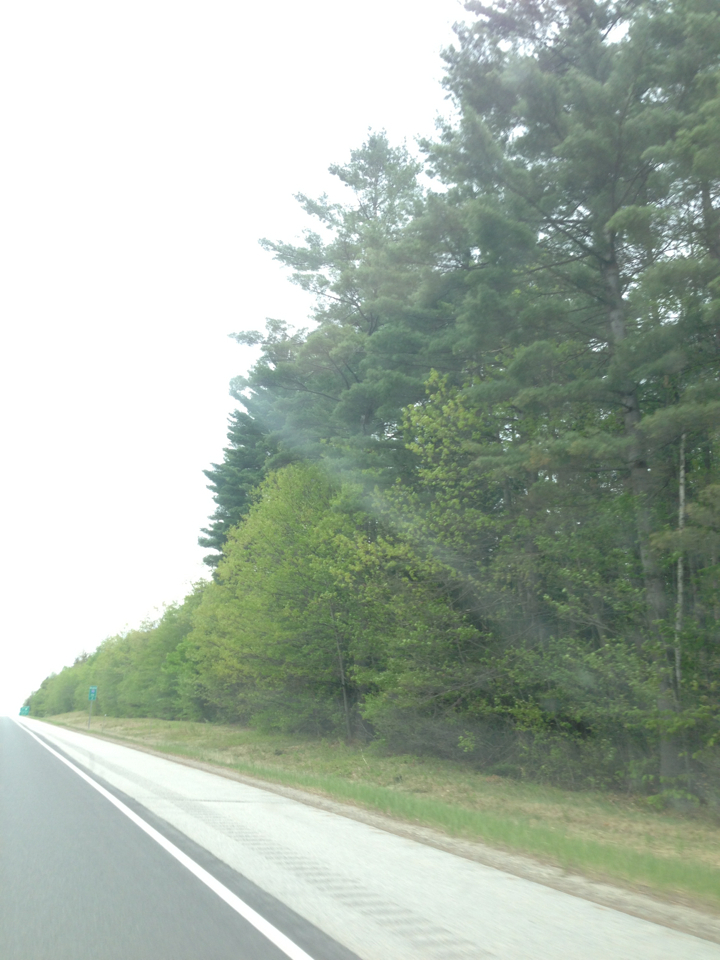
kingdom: Plantae
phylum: Tracheophyta
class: Pinopsida
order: Pinales
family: Pinaceae
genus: Pinus
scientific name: Pinus strobus
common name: Weymouth pine
